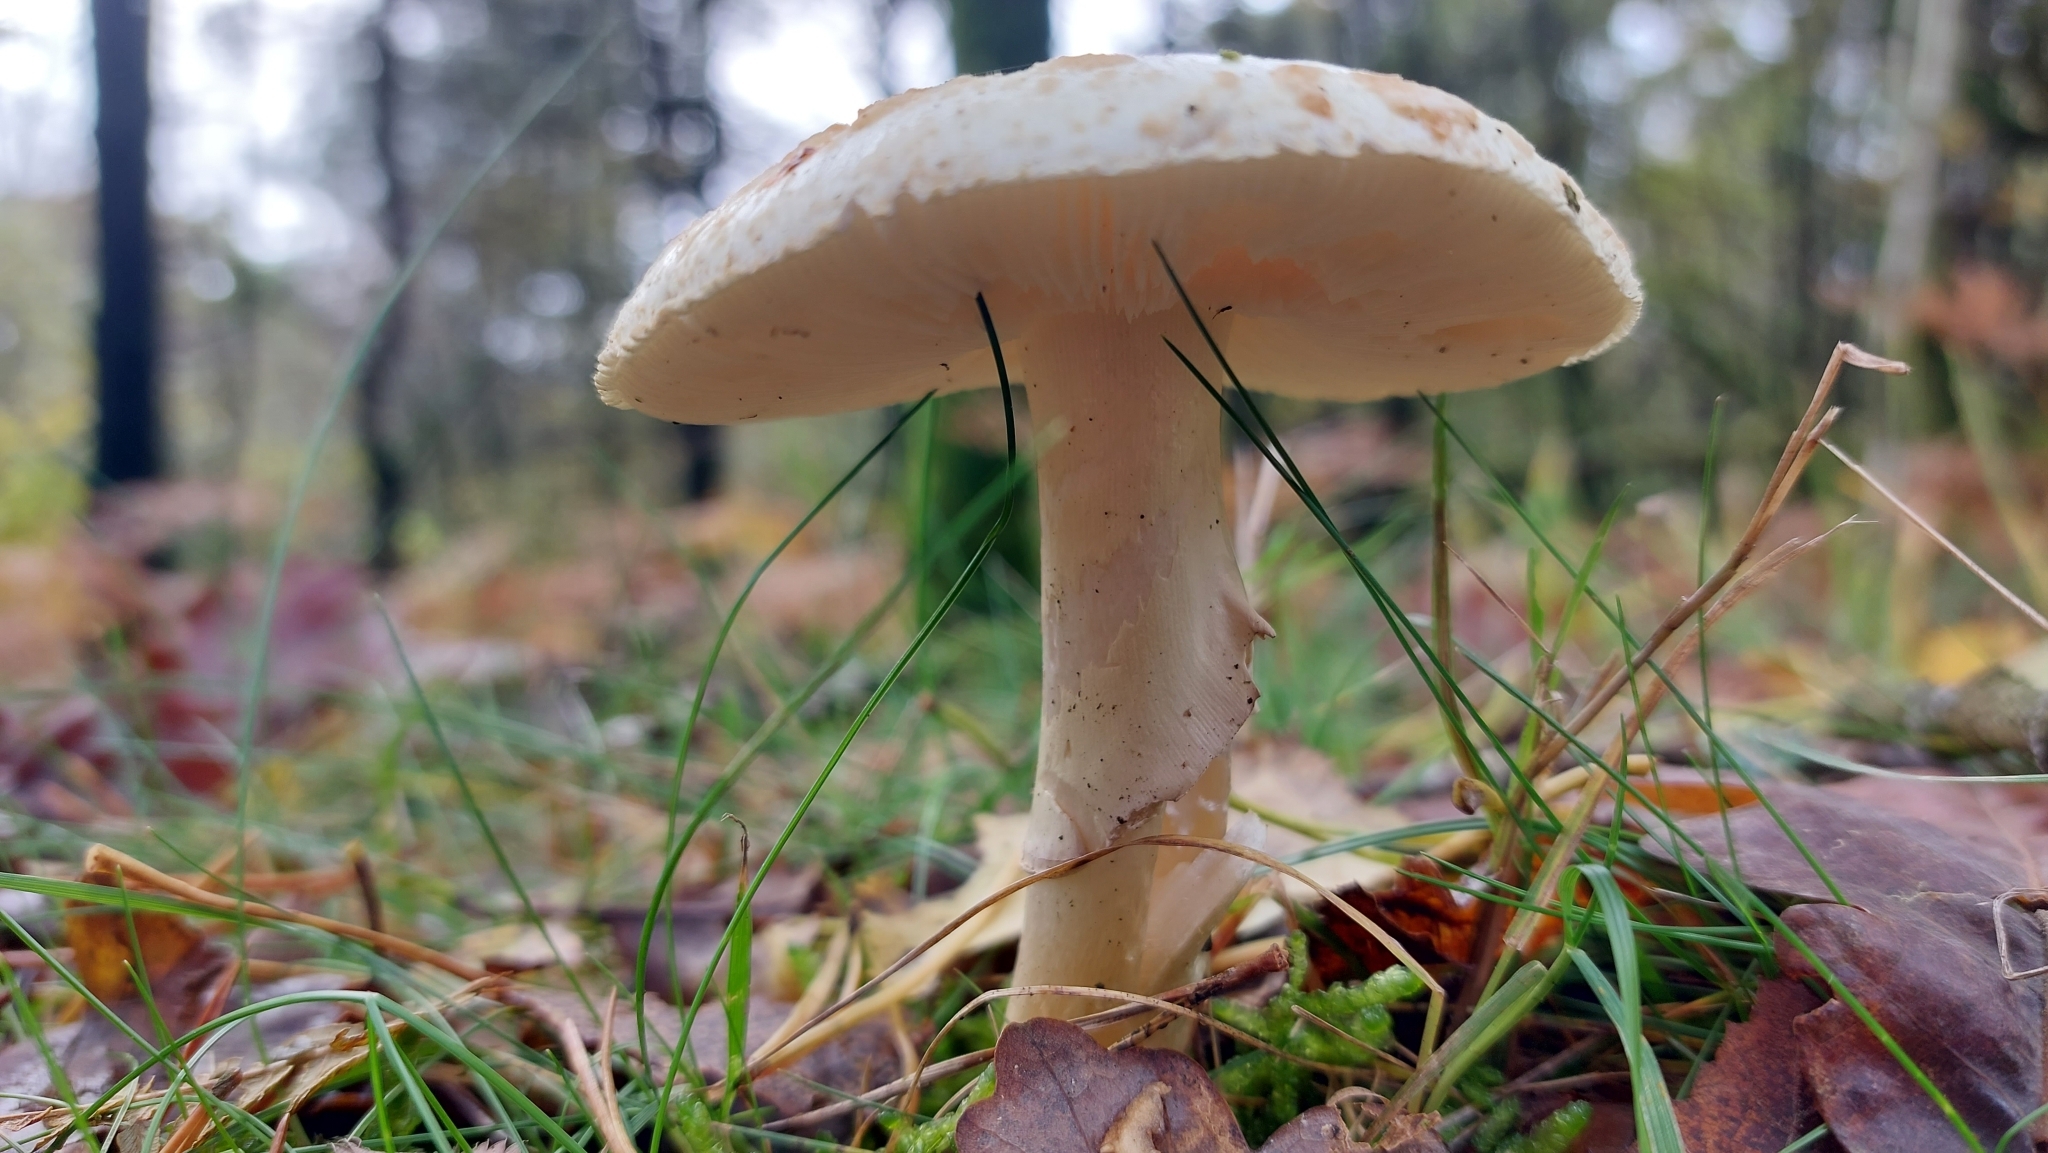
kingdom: Fungi
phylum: Basidiomycota
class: Agaricomycetes
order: Agaricales
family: Amanitaceae
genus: Amanita
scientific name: Amanita citrina
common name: False death-cap
